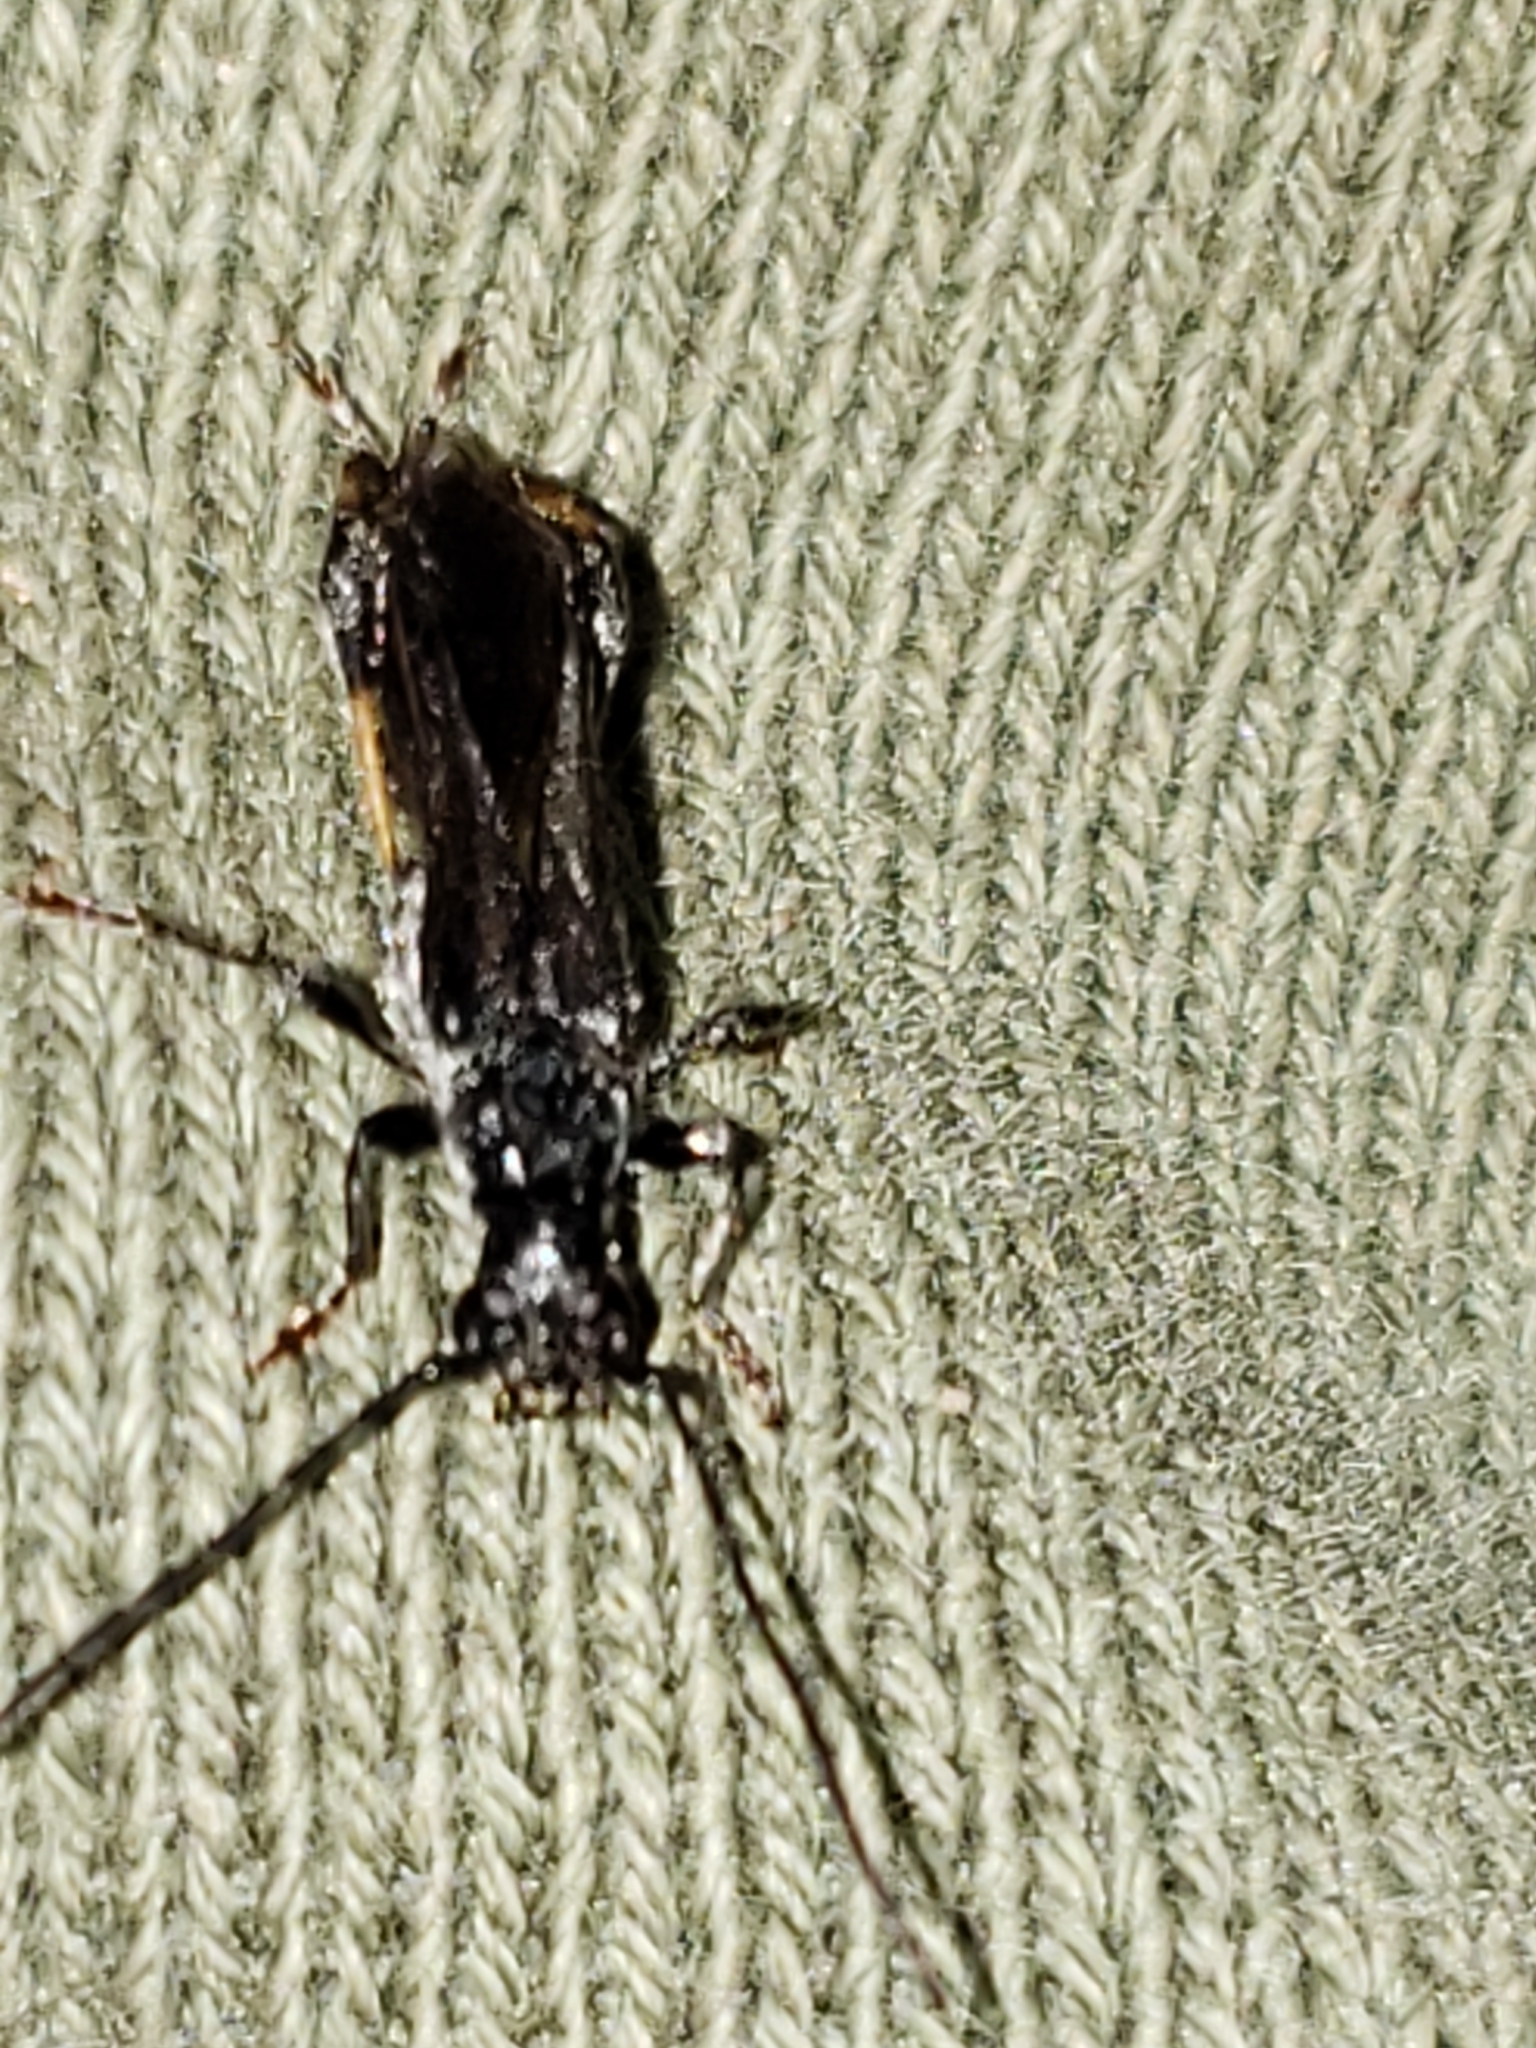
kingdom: Animalia
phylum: Arthropoda
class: Insecta
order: Coleoptera
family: Cerambycidae
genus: Callimoxys
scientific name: Callimoxys sanguinicollis
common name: Blood-necked longhorn beetle
